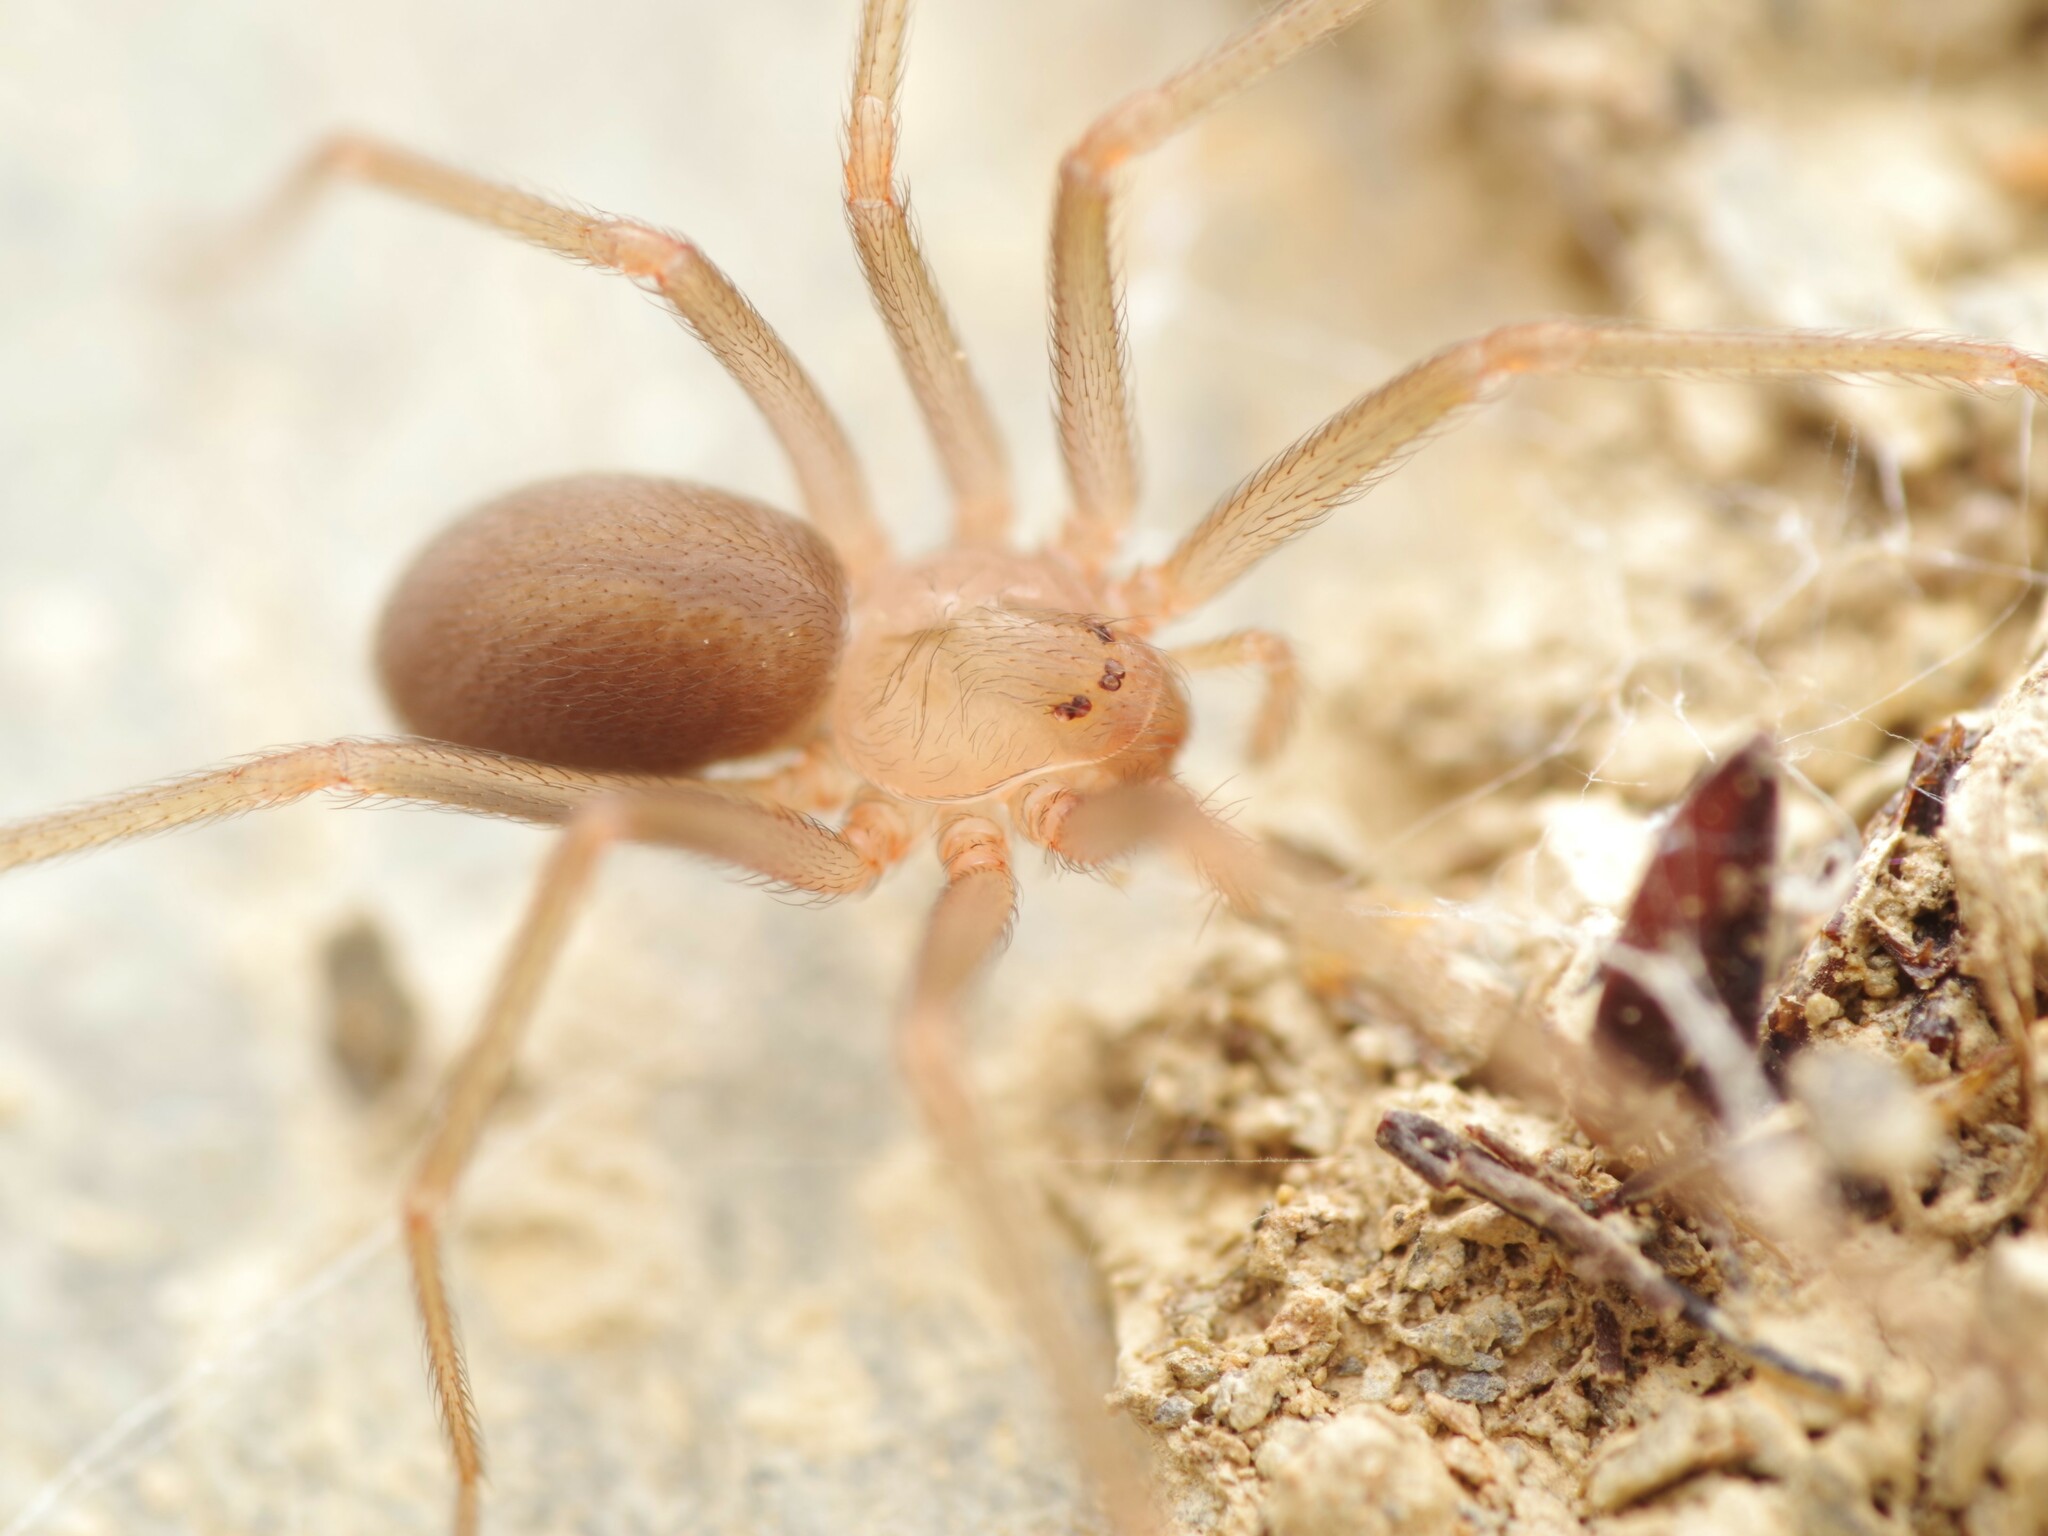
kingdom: Animalia
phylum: Arthropoda
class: Arachnida
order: Araneae
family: Sicariidae
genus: Loxosceles
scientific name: Loxosceles rufescens
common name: Mediterranean recluse spider
